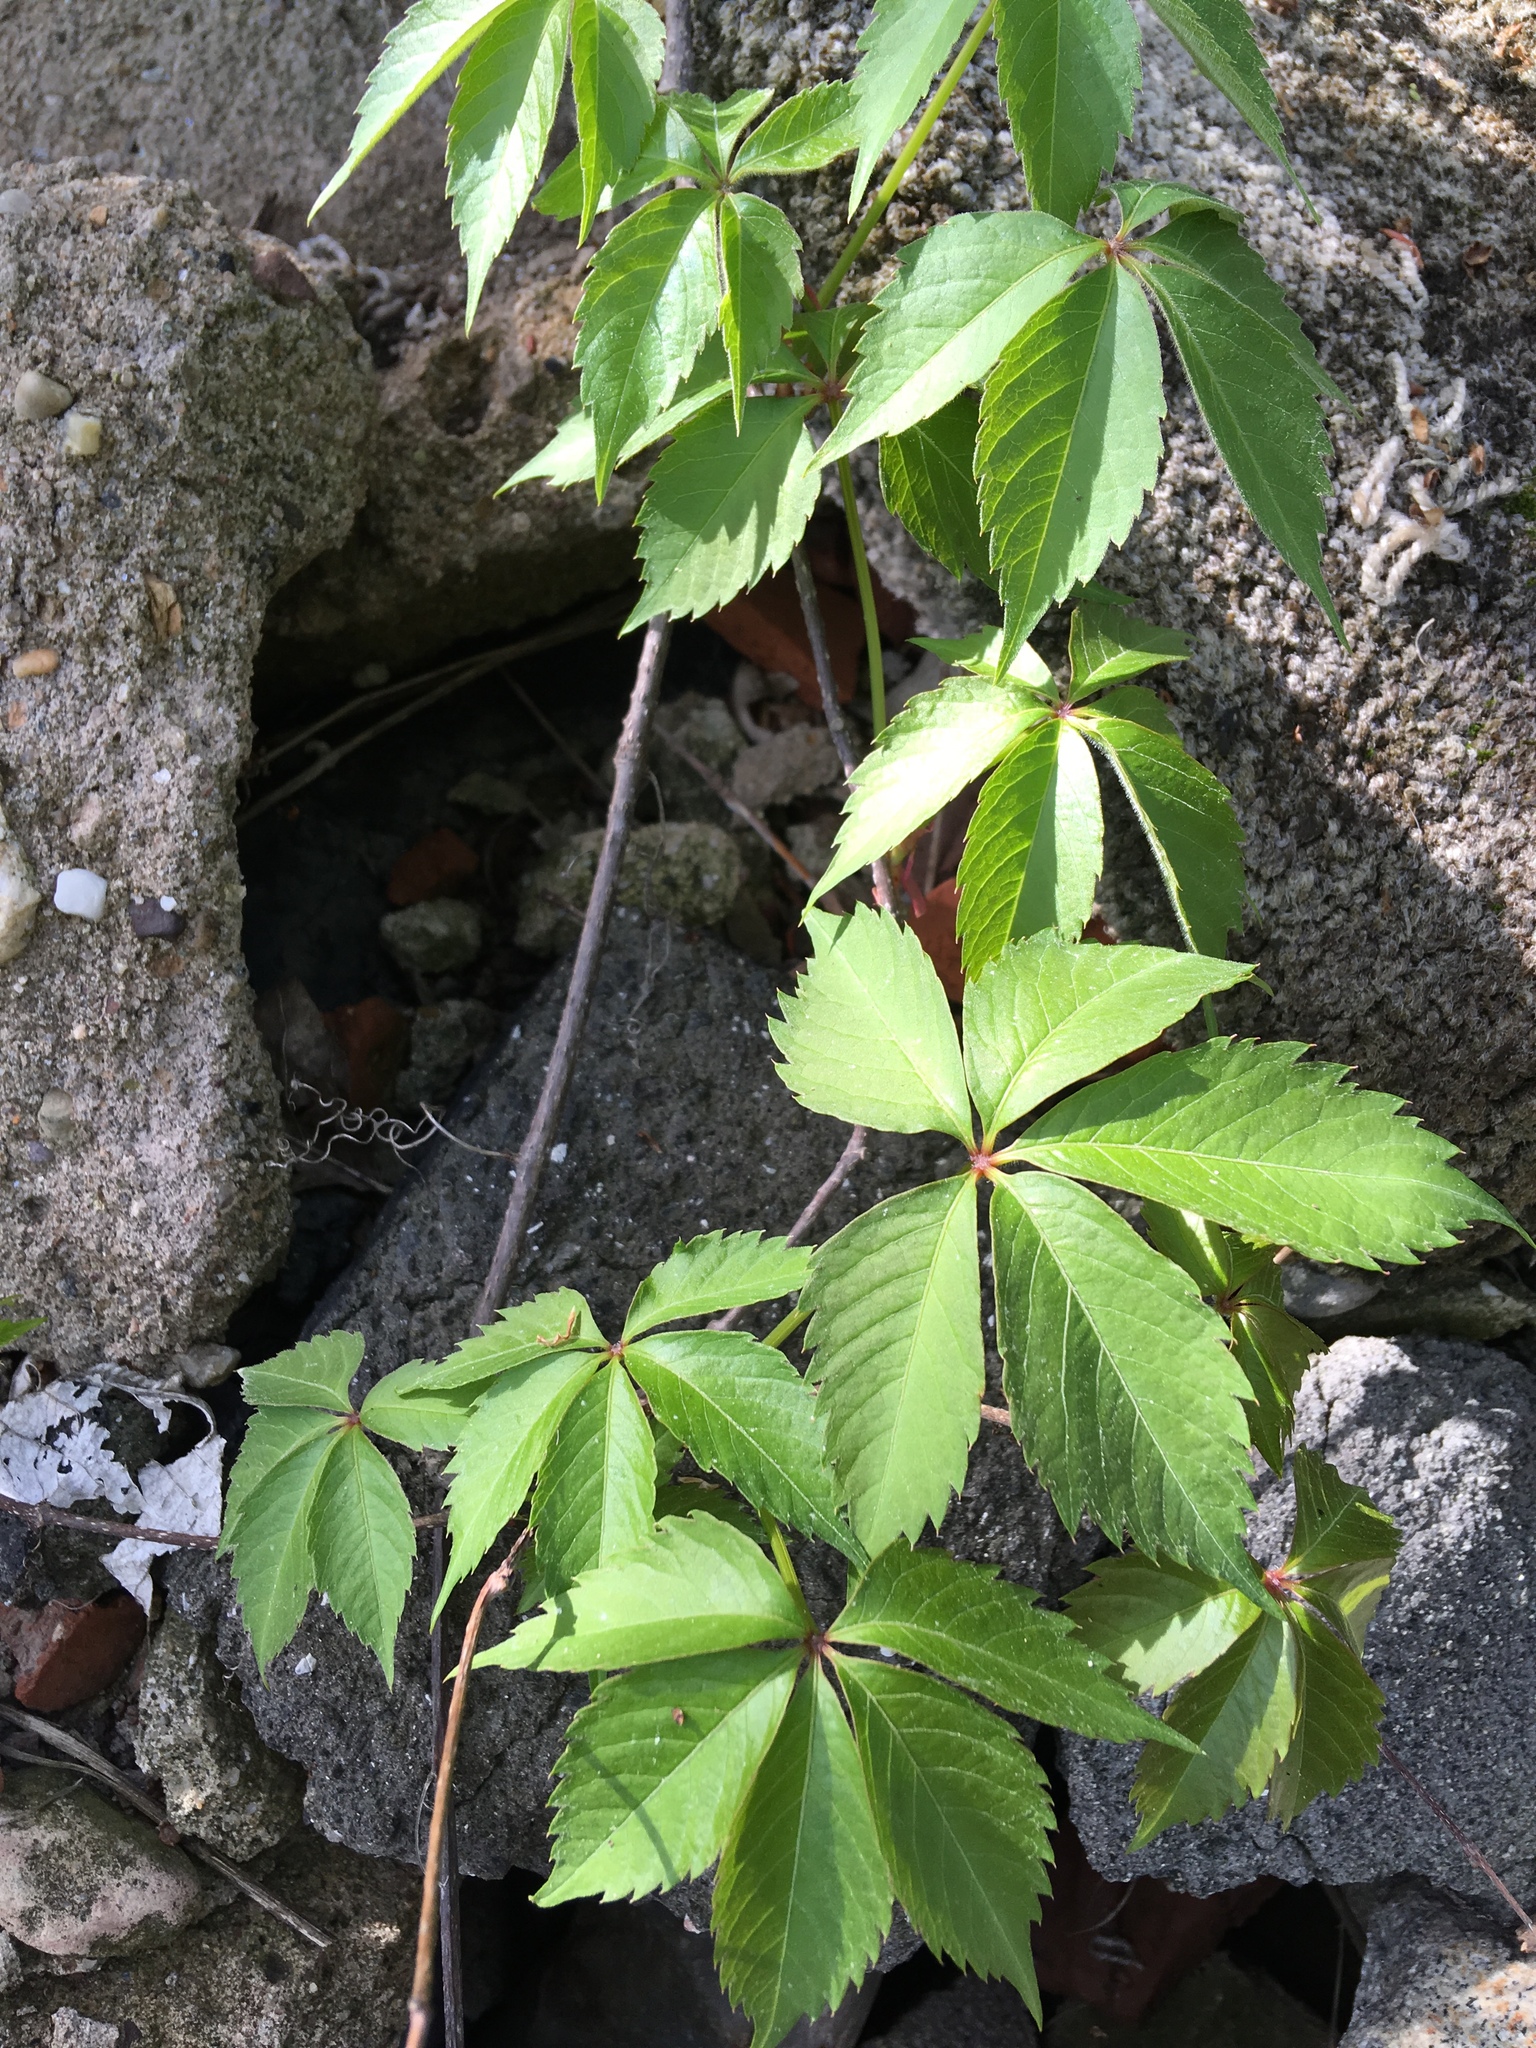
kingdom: Plantae
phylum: Tracheophyta
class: Magnoliopsida
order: Vitales
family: Vitaceae
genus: Parthenocissus
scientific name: Parthenocissus quinquefolia
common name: Virginia-creeper
